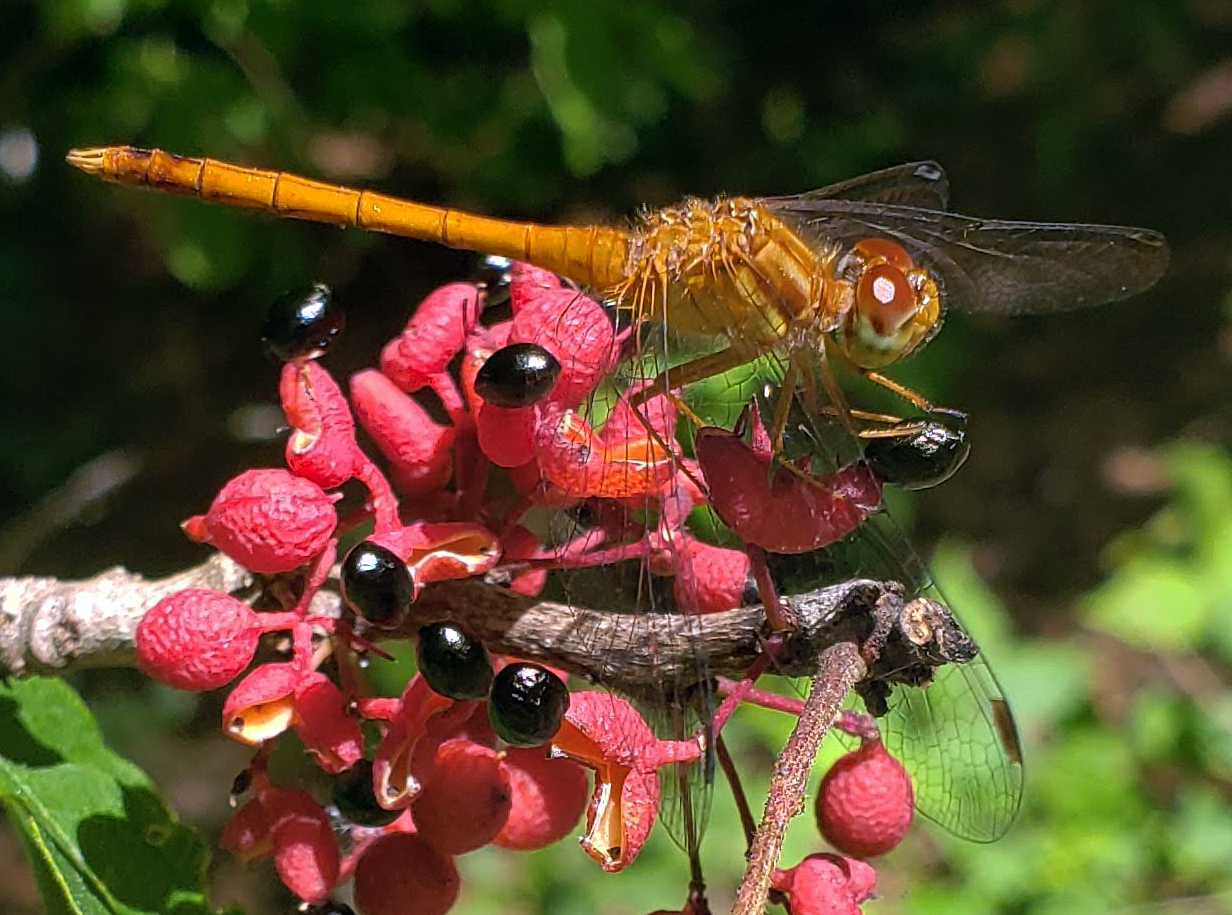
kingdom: Animalia
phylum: Arthropoda
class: Insecta
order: Odonata
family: Libellulidae
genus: Sympetrum
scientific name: Sympetrum vicinum
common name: Autumn meadowhawk
